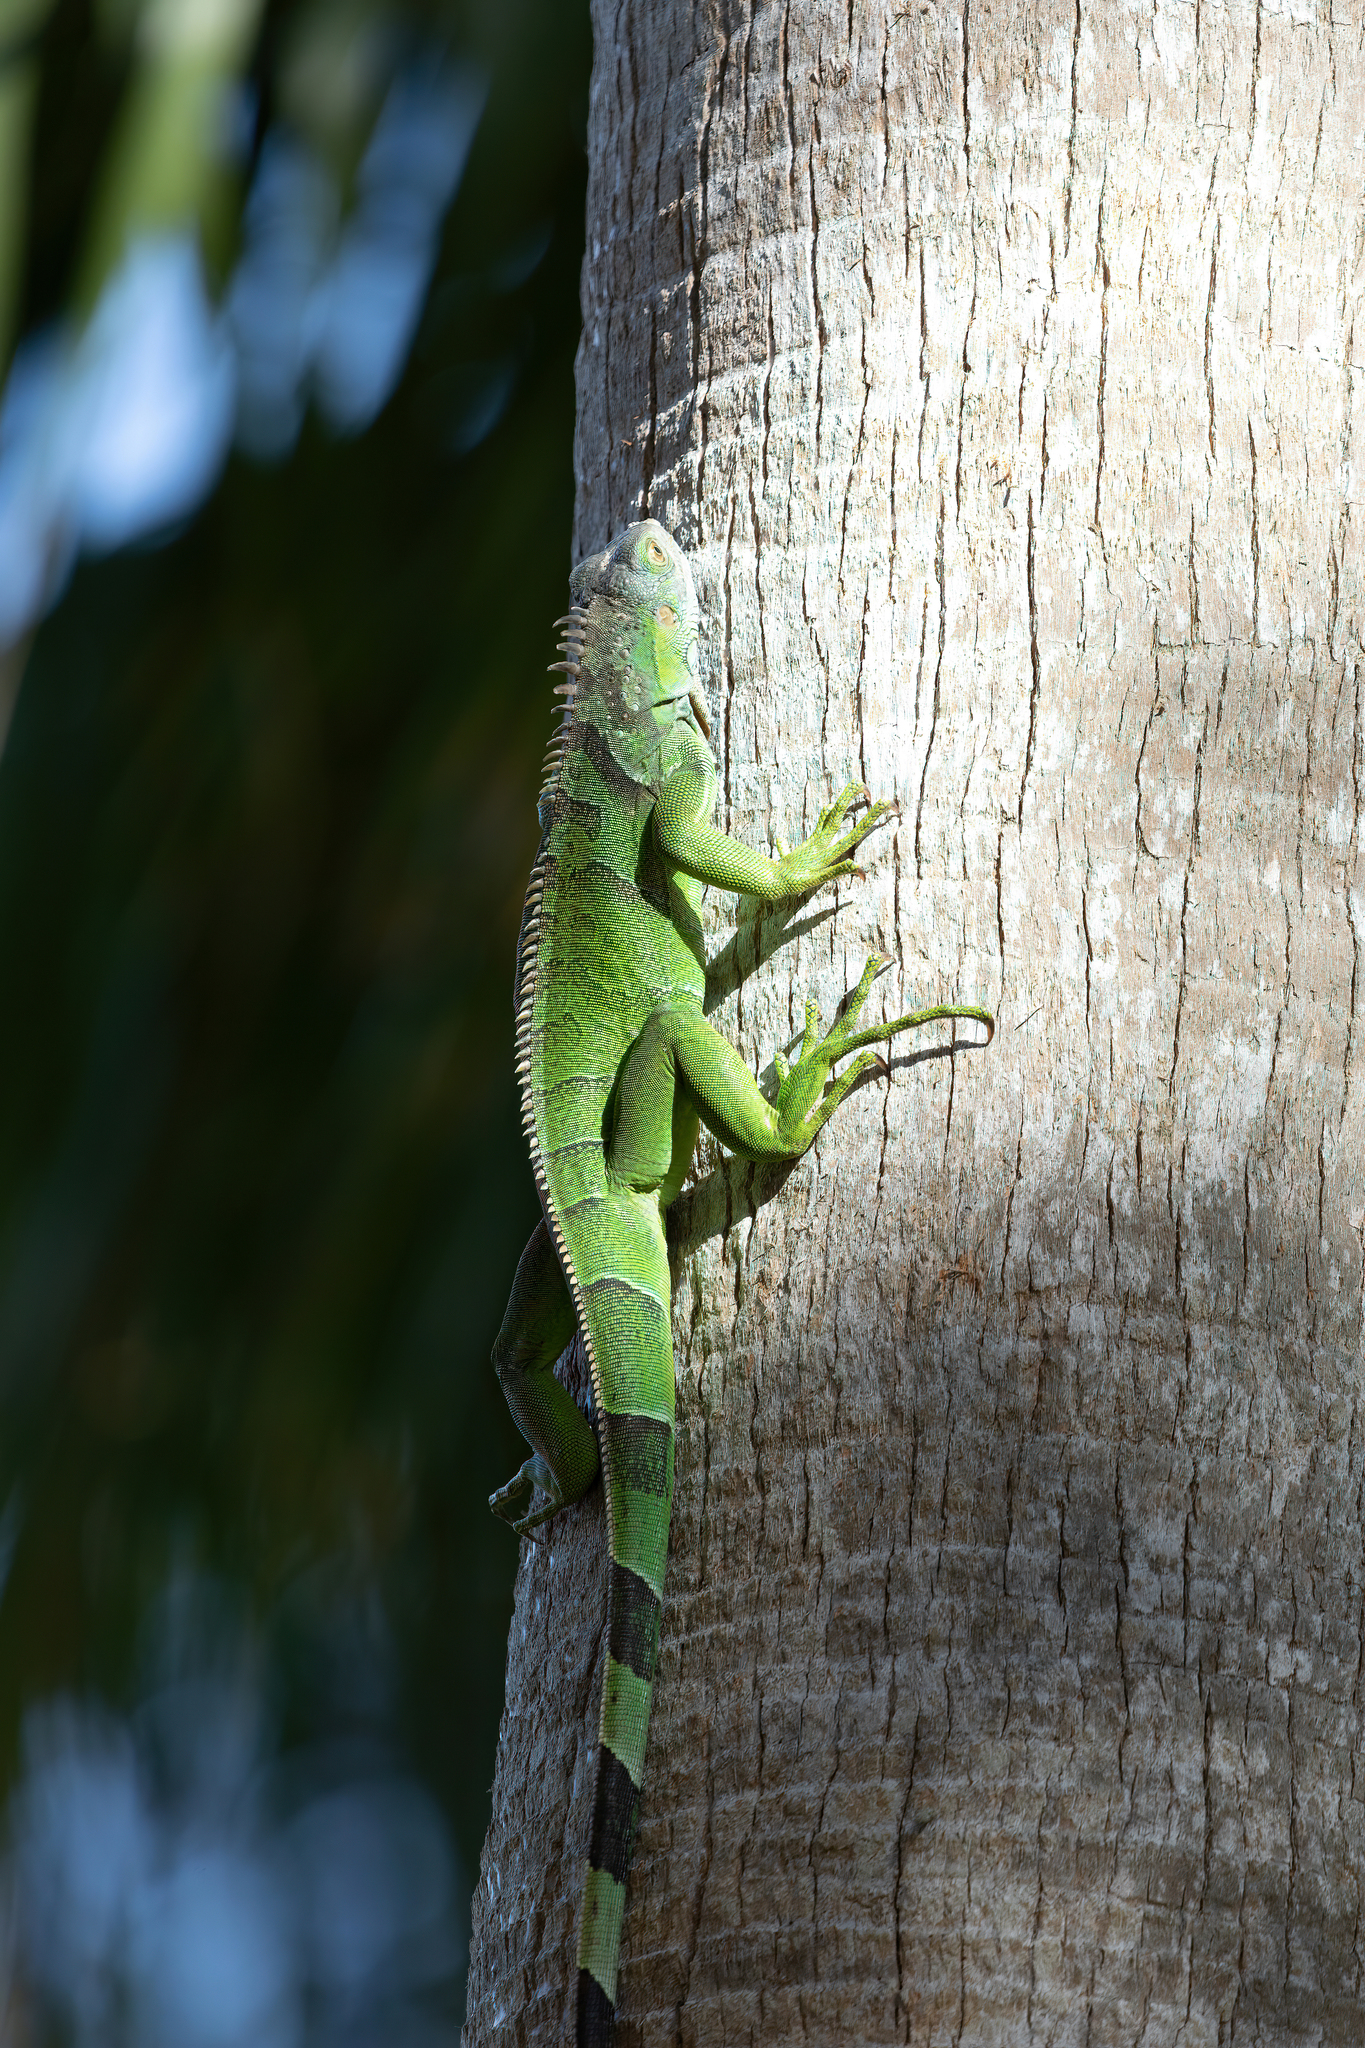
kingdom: Animalia
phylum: Chordata
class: Squamata
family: Iguanidae
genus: Iguana
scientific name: Iguana iguana
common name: Green iguana
